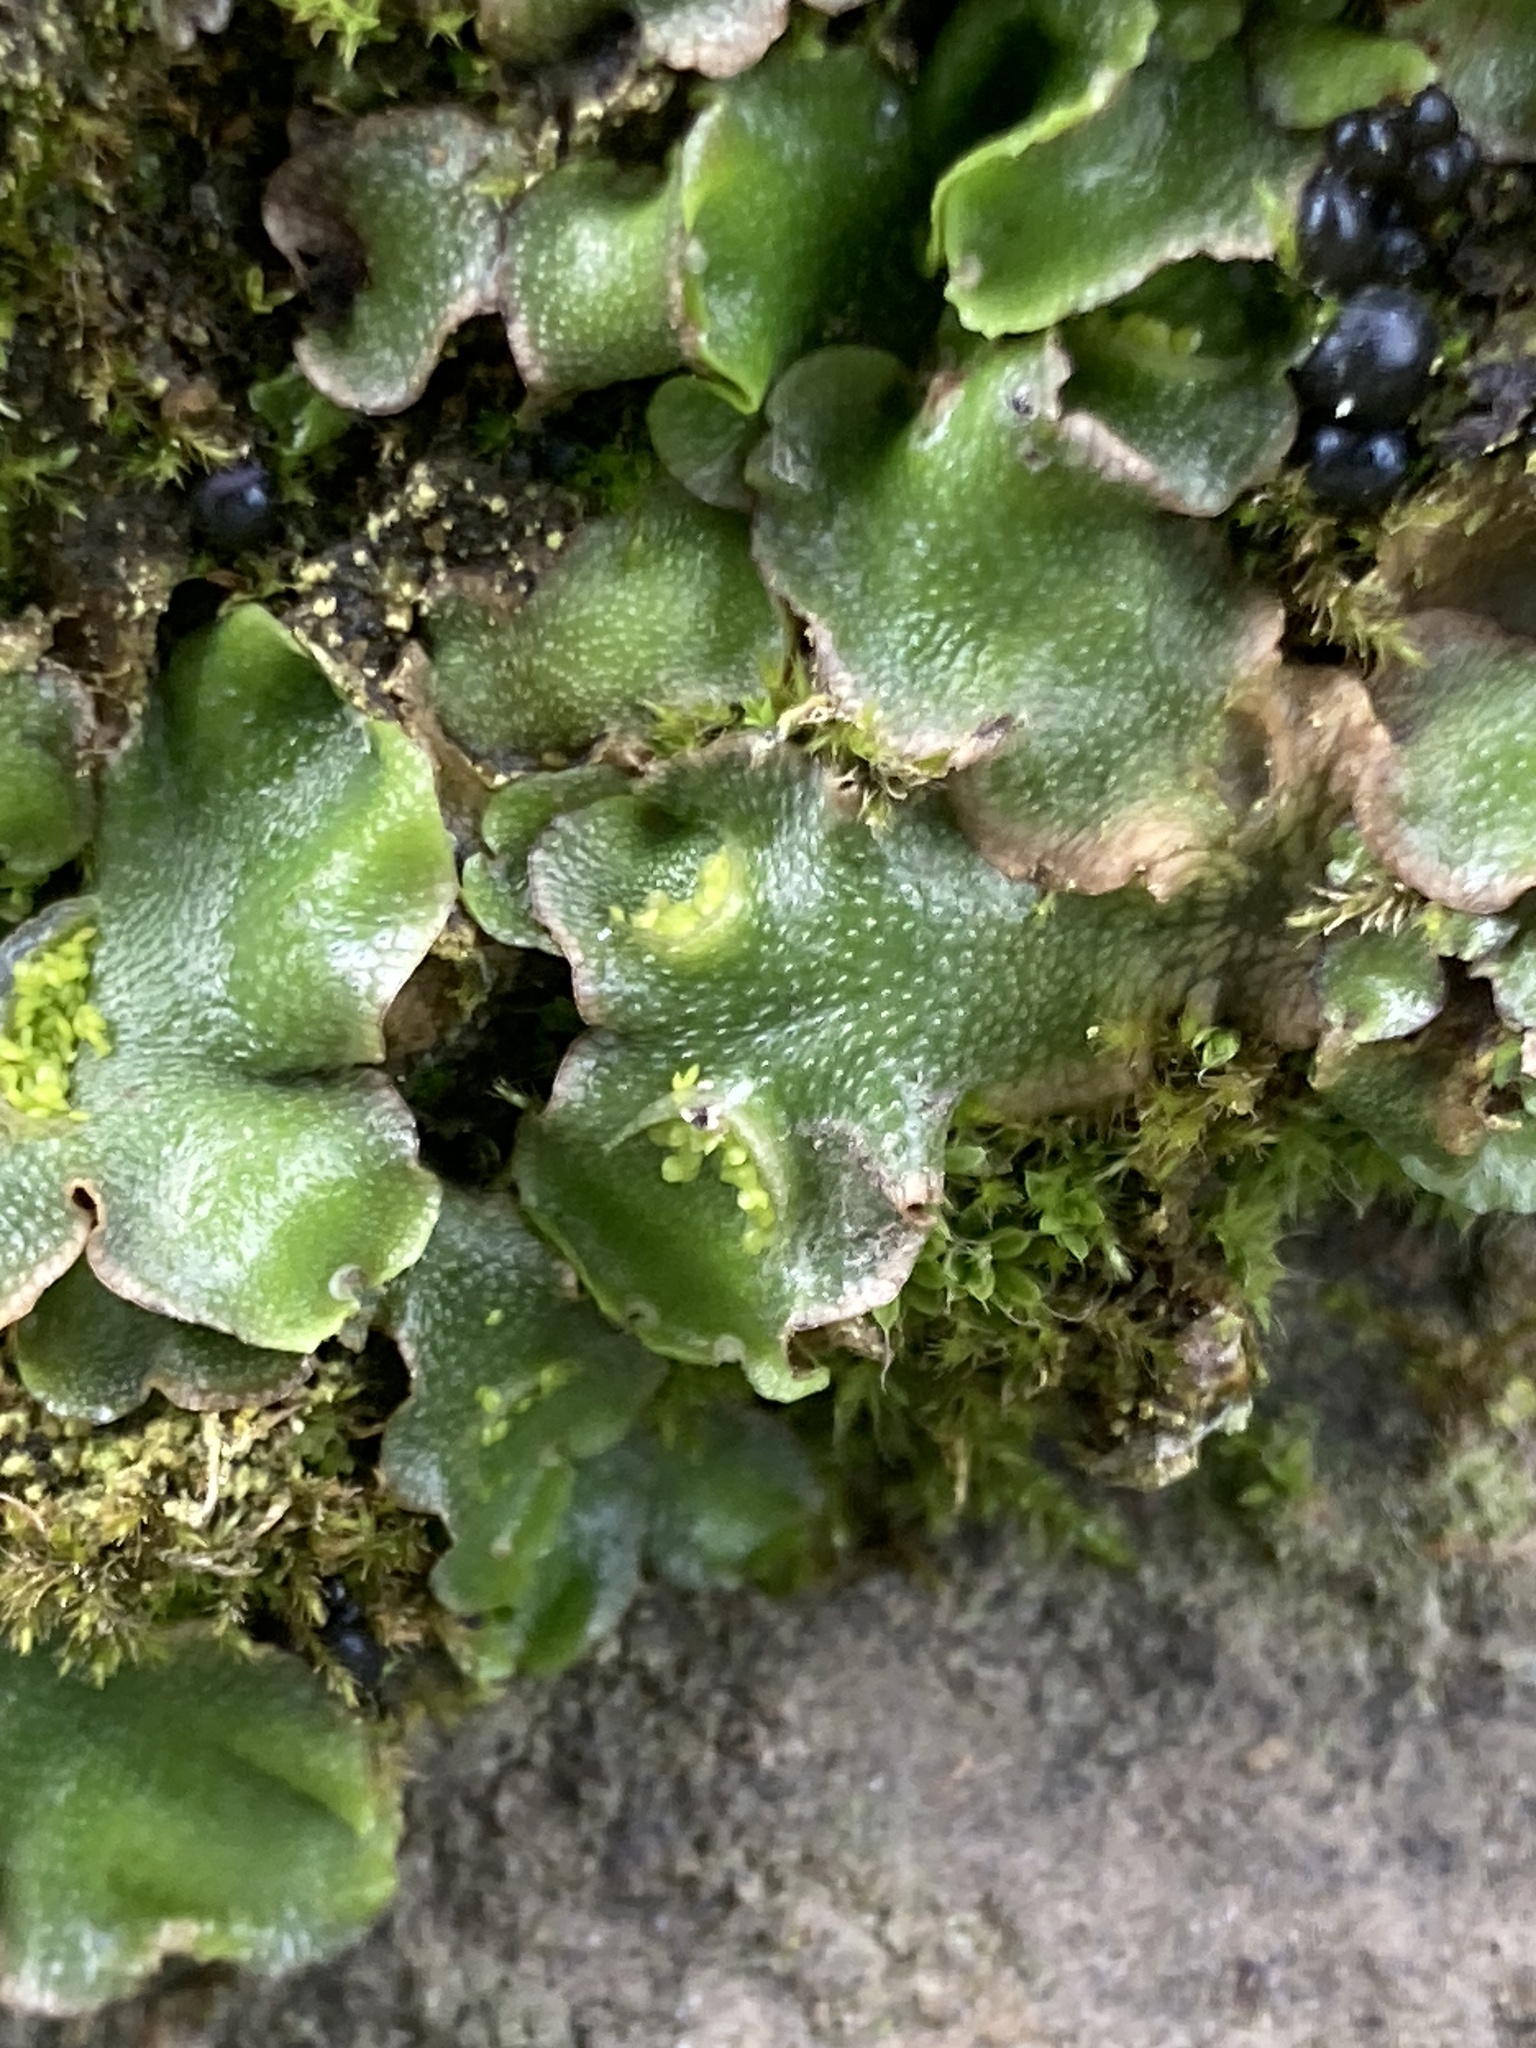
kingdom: Plantae
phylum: Marchantiophyta
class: Marchantiopsida
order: Lunulariales
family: Lunulariaceae
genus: Lunularia
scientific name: Lunularia cruciata
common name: Crescent-cup liverwort
